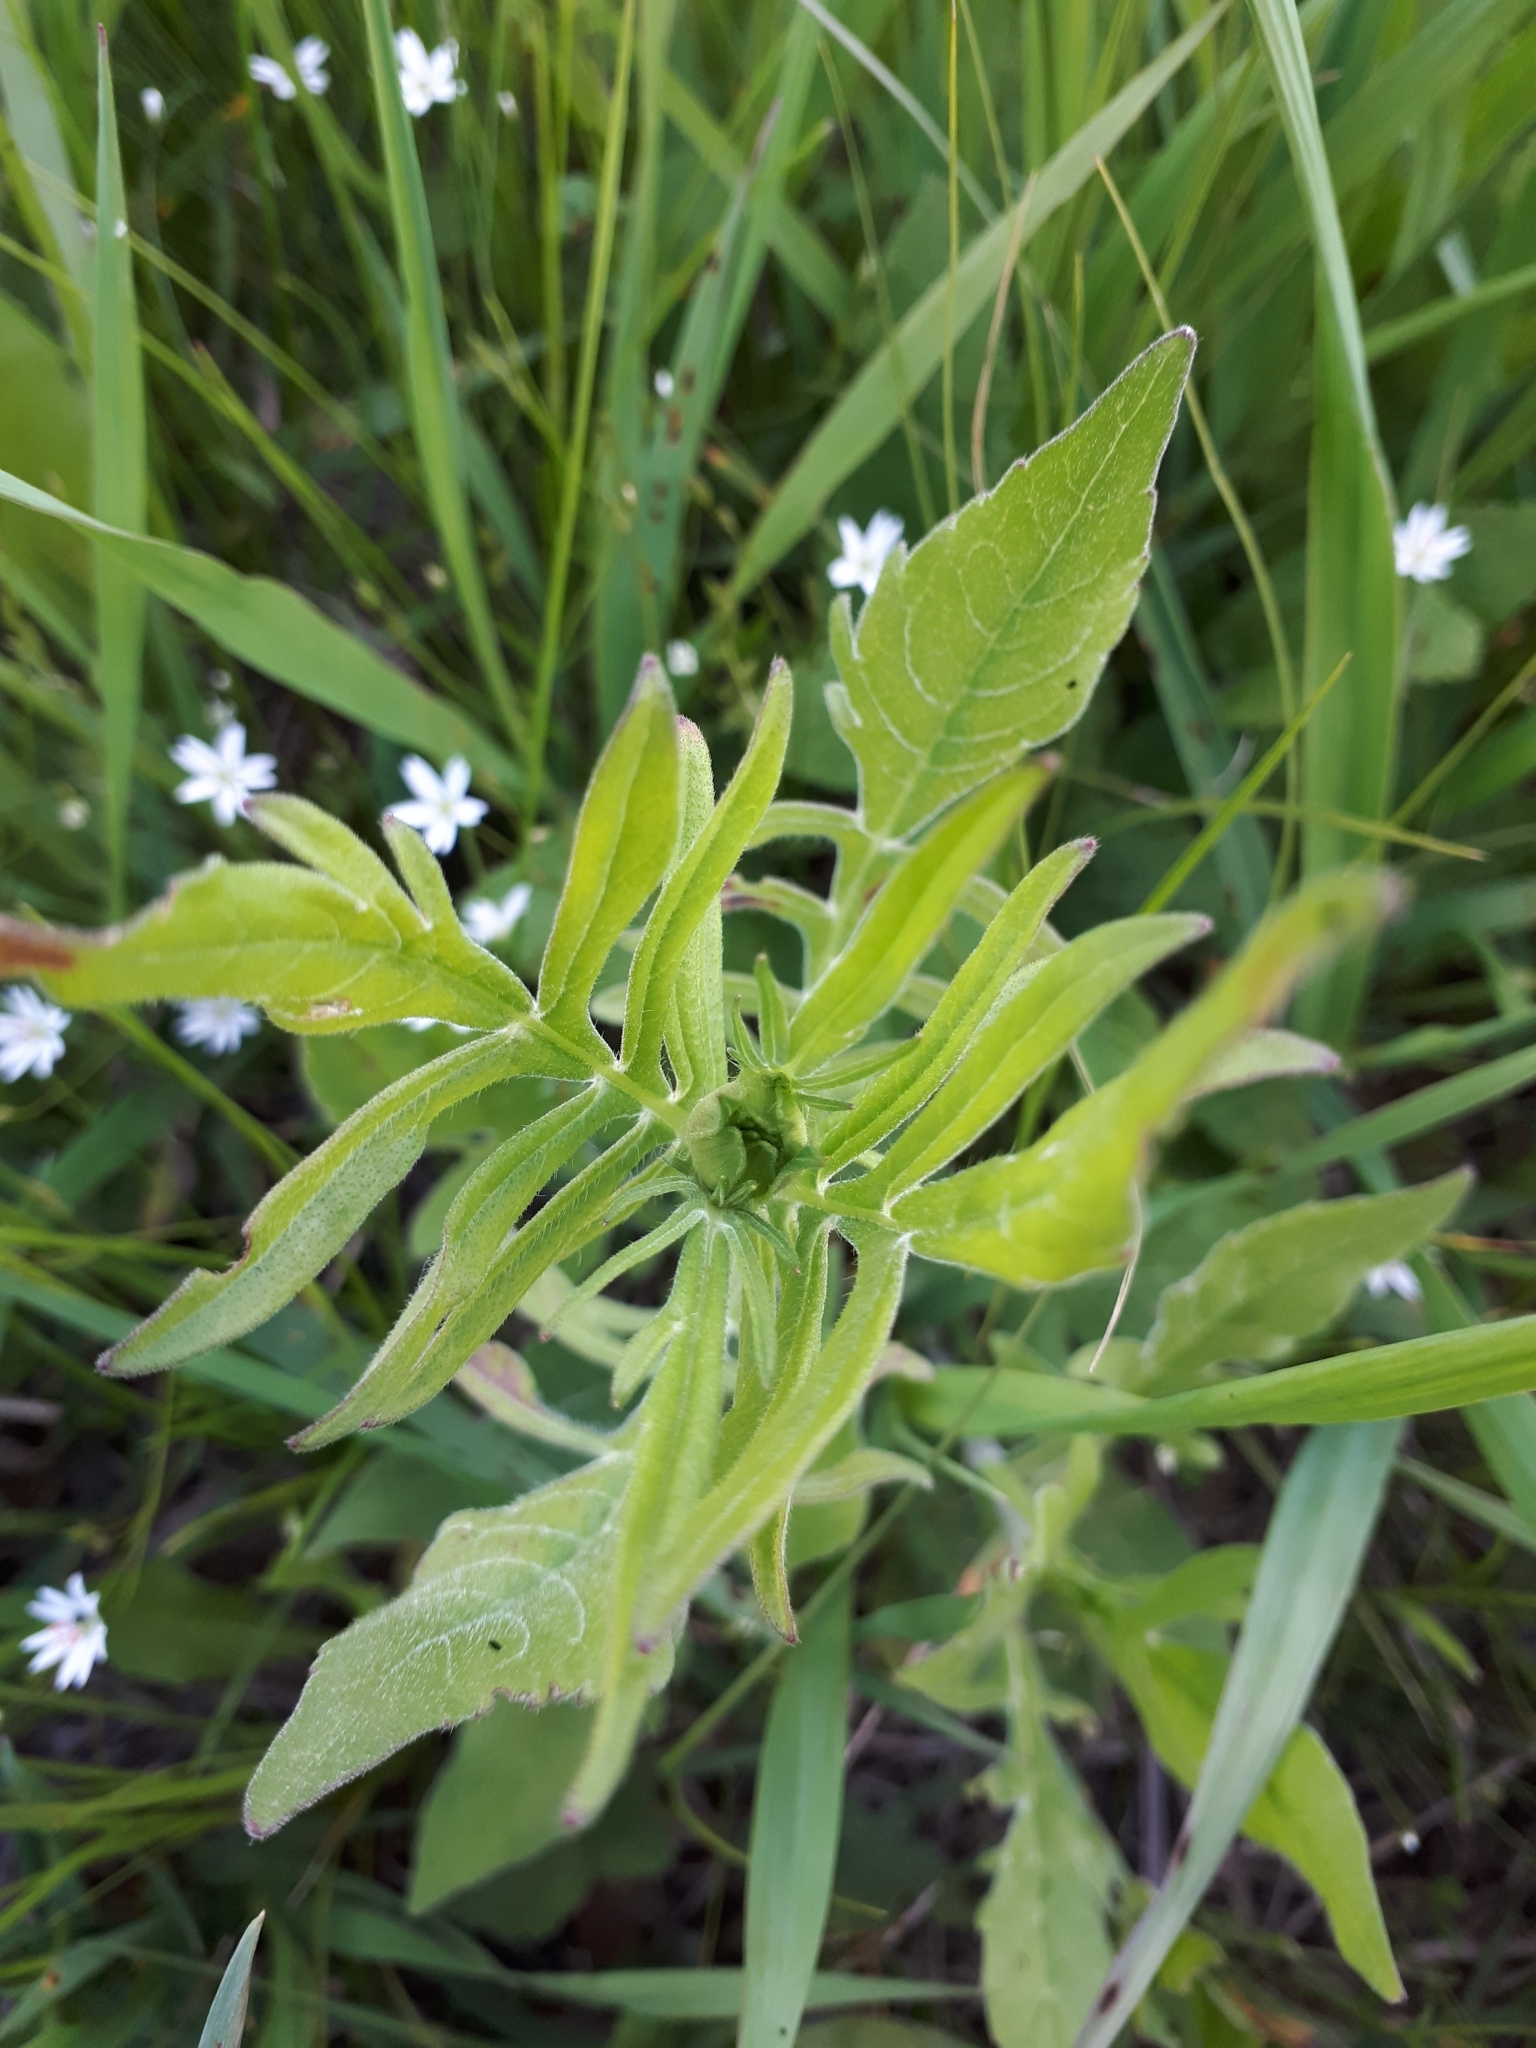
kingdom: Plantae
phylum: Tracheophyta
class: Magnoliopsida
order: Dipsacales
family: Caprifoliaceae
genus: Knautia
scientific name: Knautia arvensis
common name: Field scabiosa
